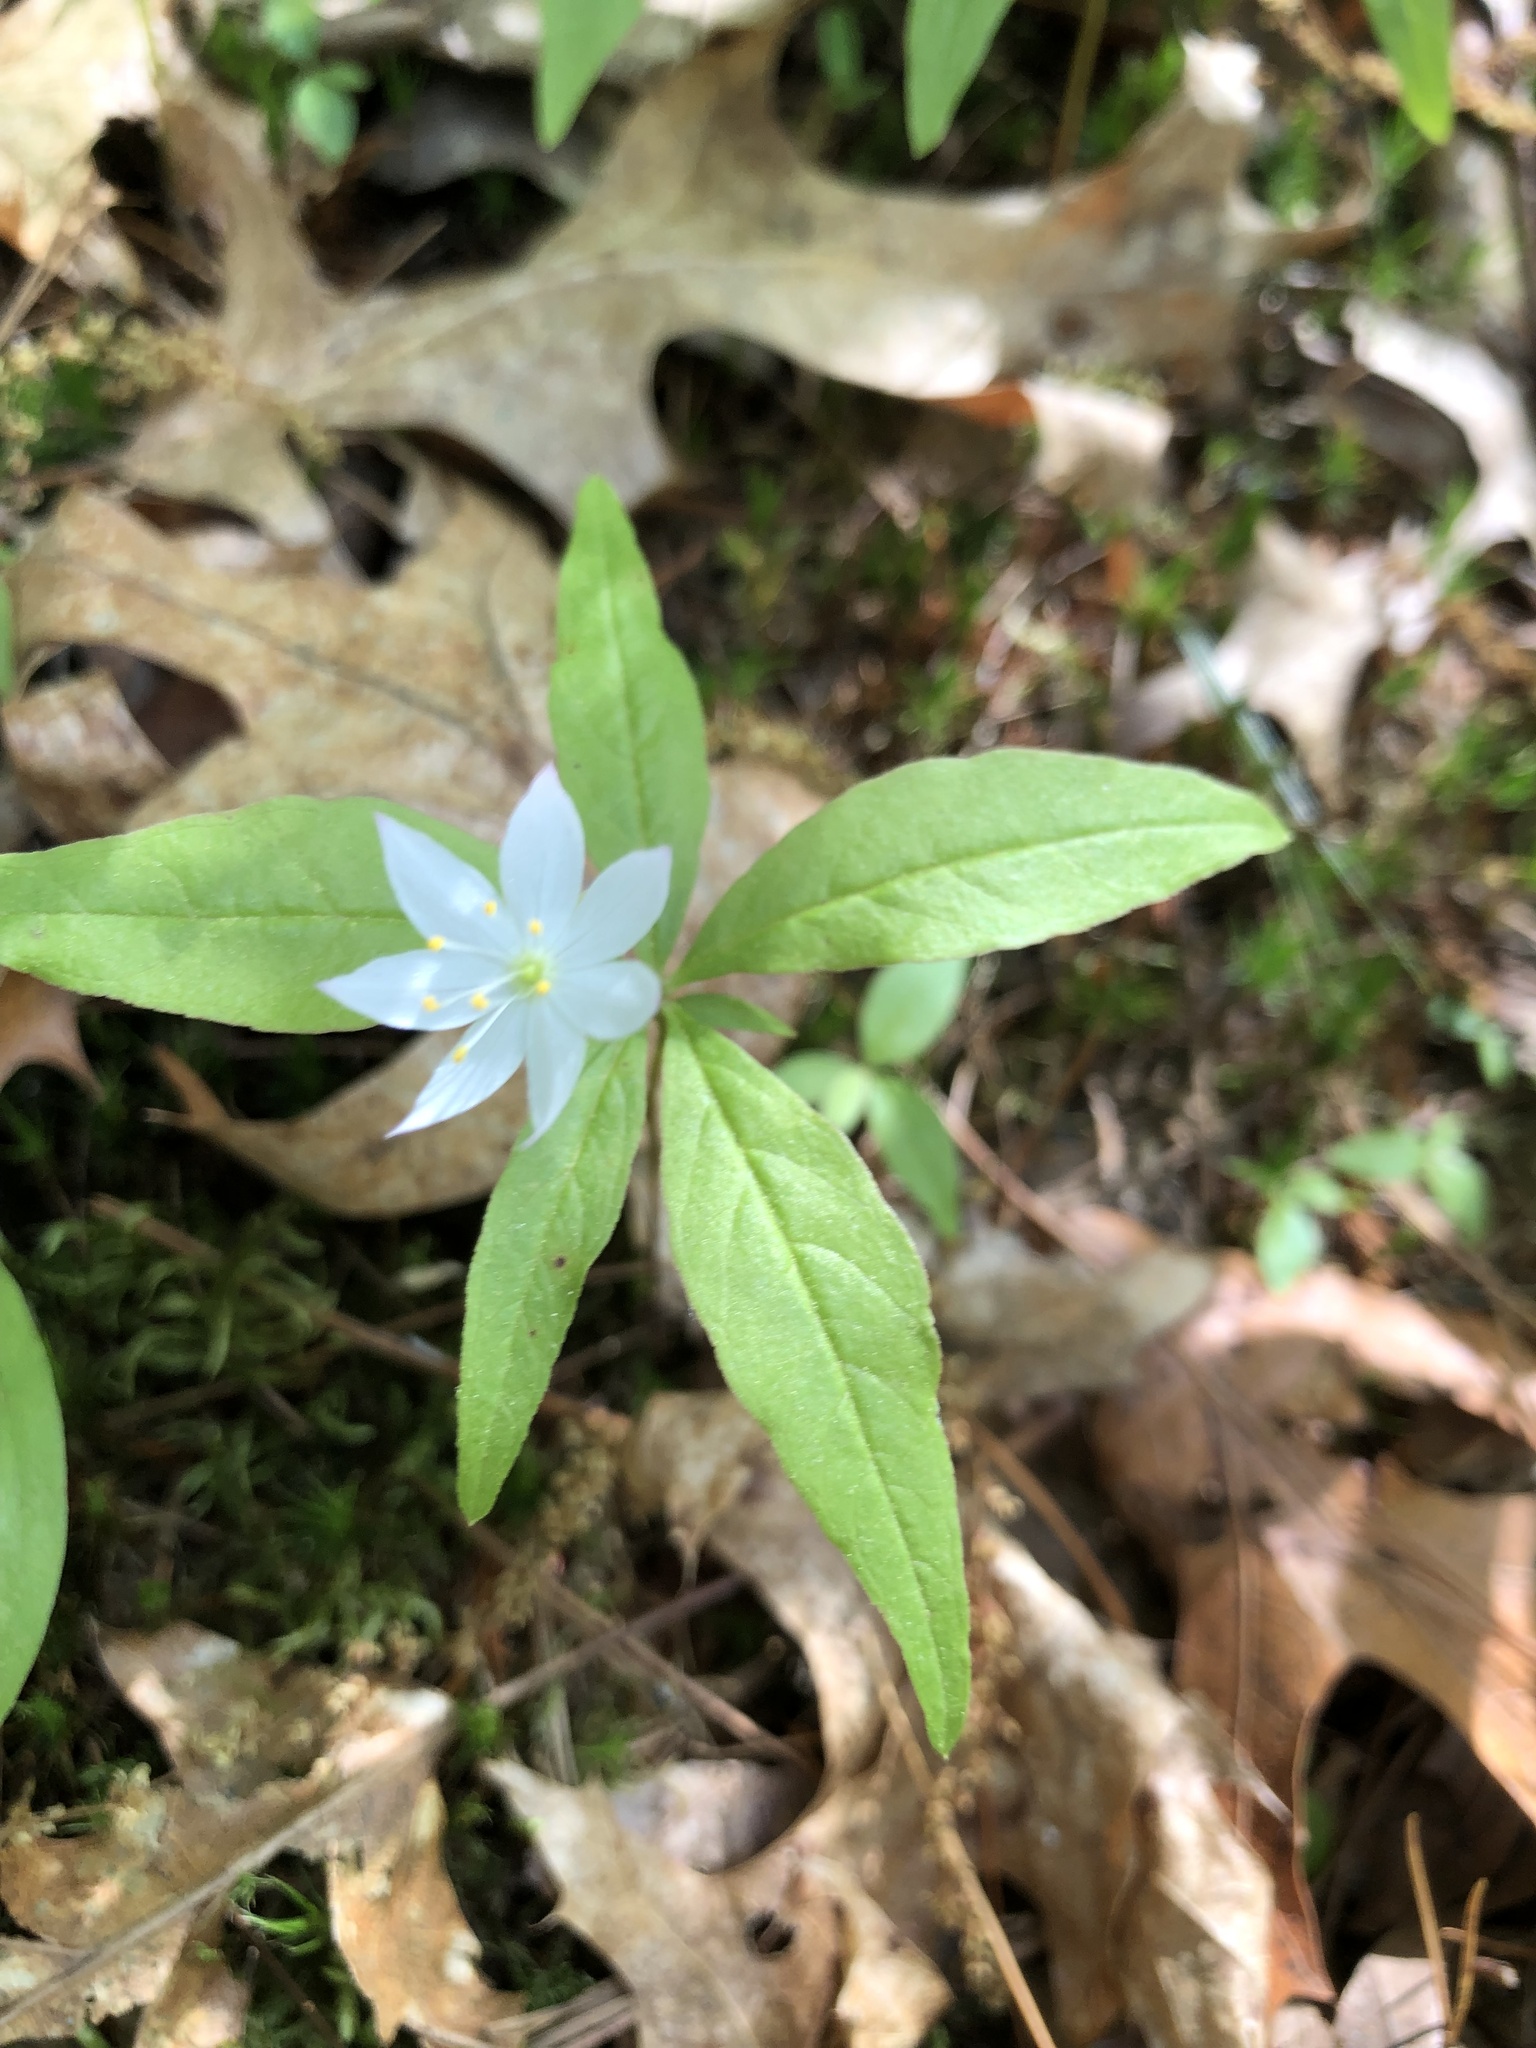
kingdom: Plantae
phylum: Tracheophyta
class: Magnoliopsida
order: Ericales
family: Primulaceae
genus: Lysimachia
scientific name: Lysimachia borealis
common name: American starflower
